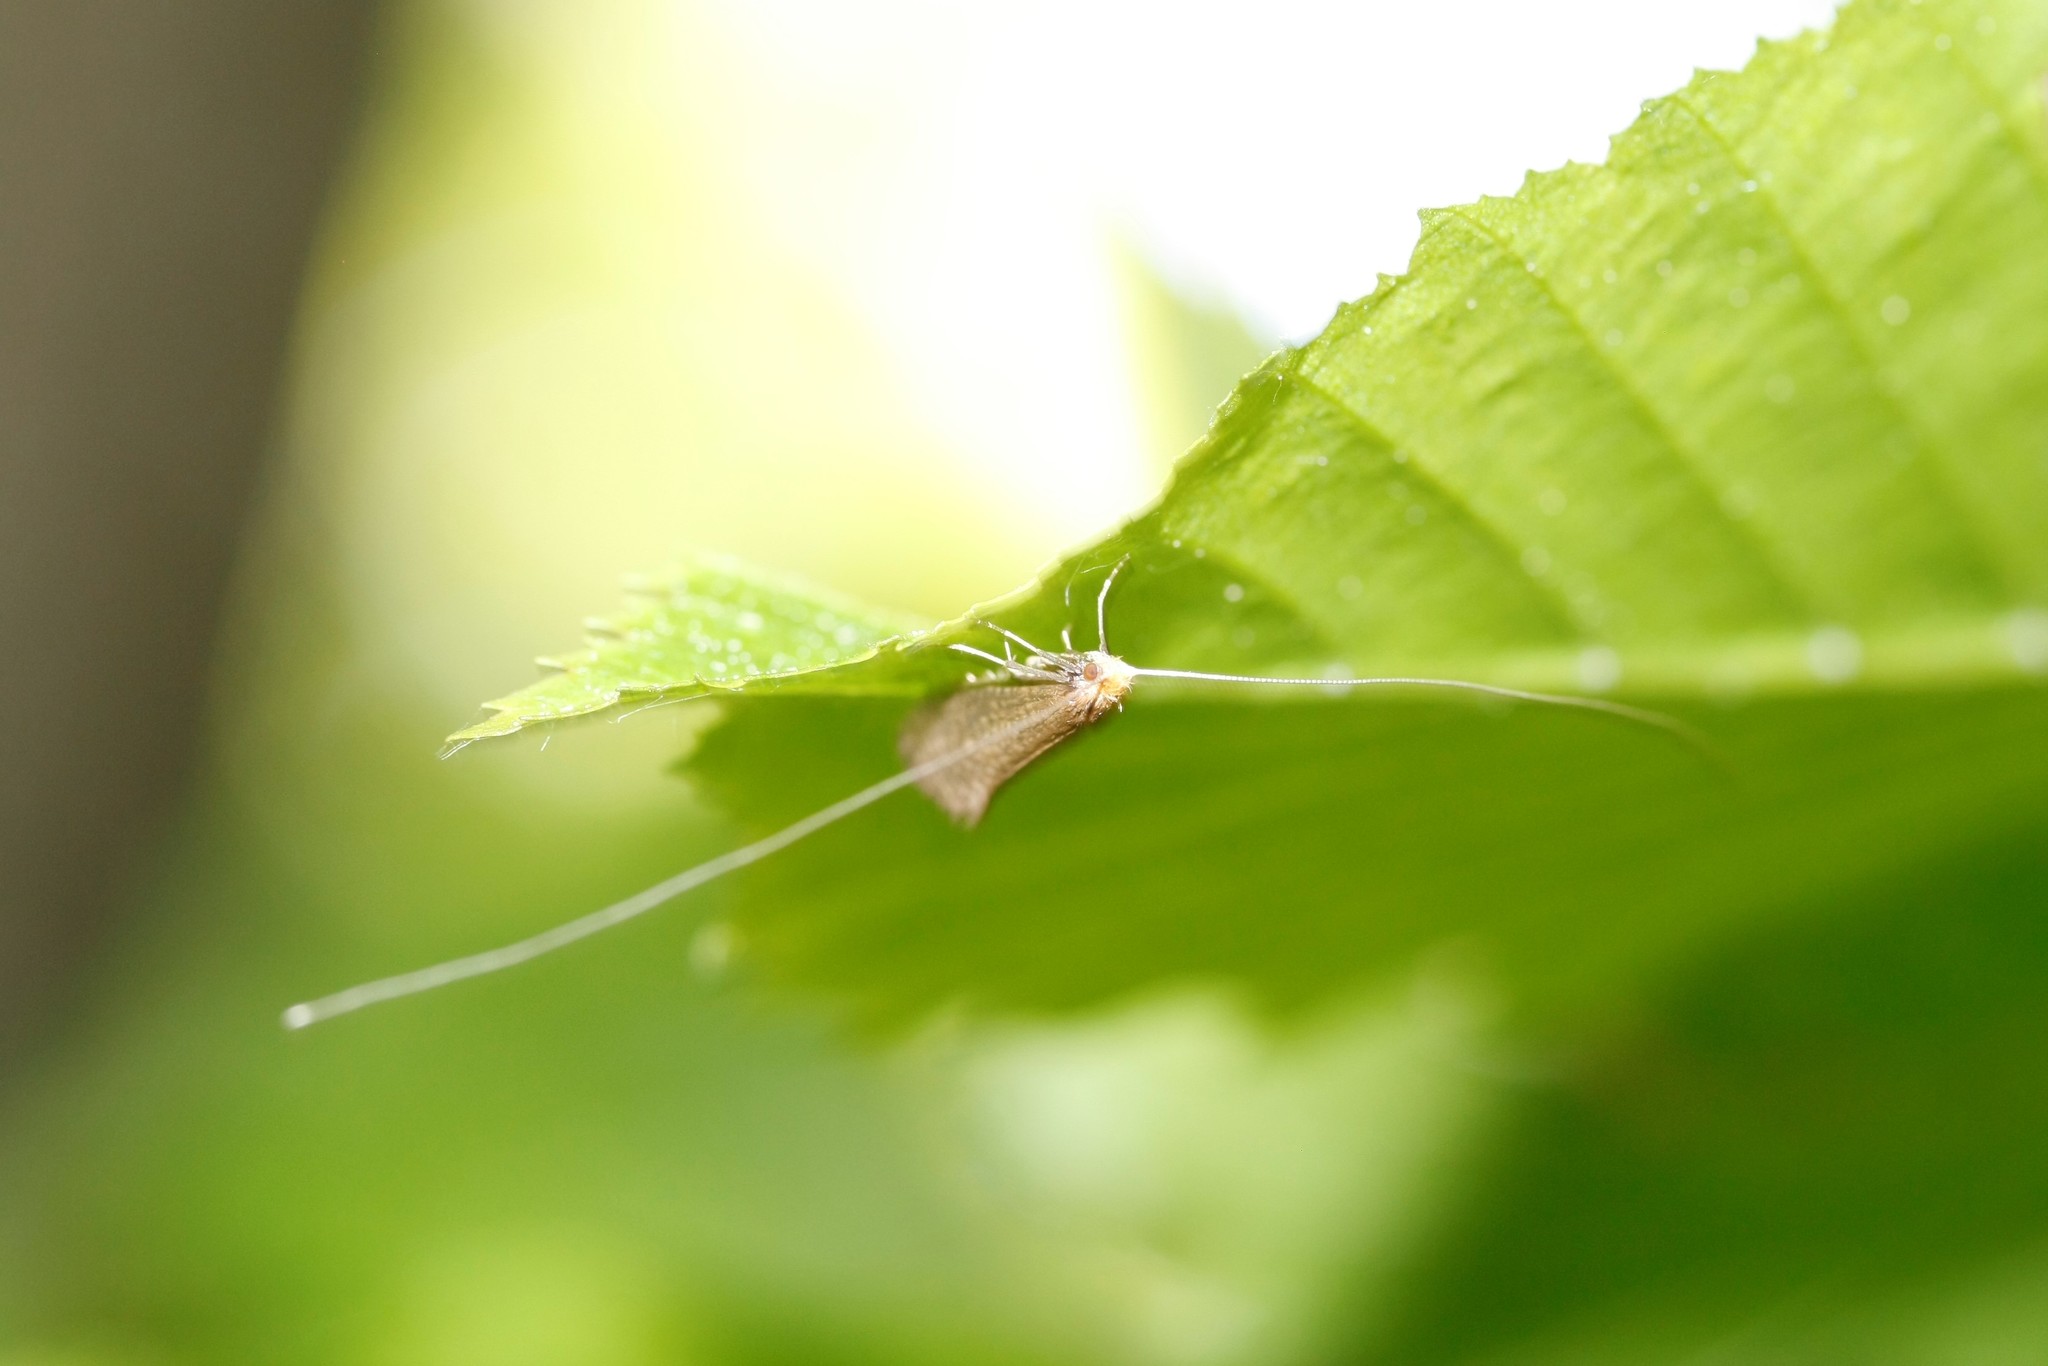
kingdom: Animalia
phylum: Arthropoda
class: Insecta
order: Lepidoptera
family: Adelidae
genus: Nematopogon
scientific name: Nematopogon adansoniella
